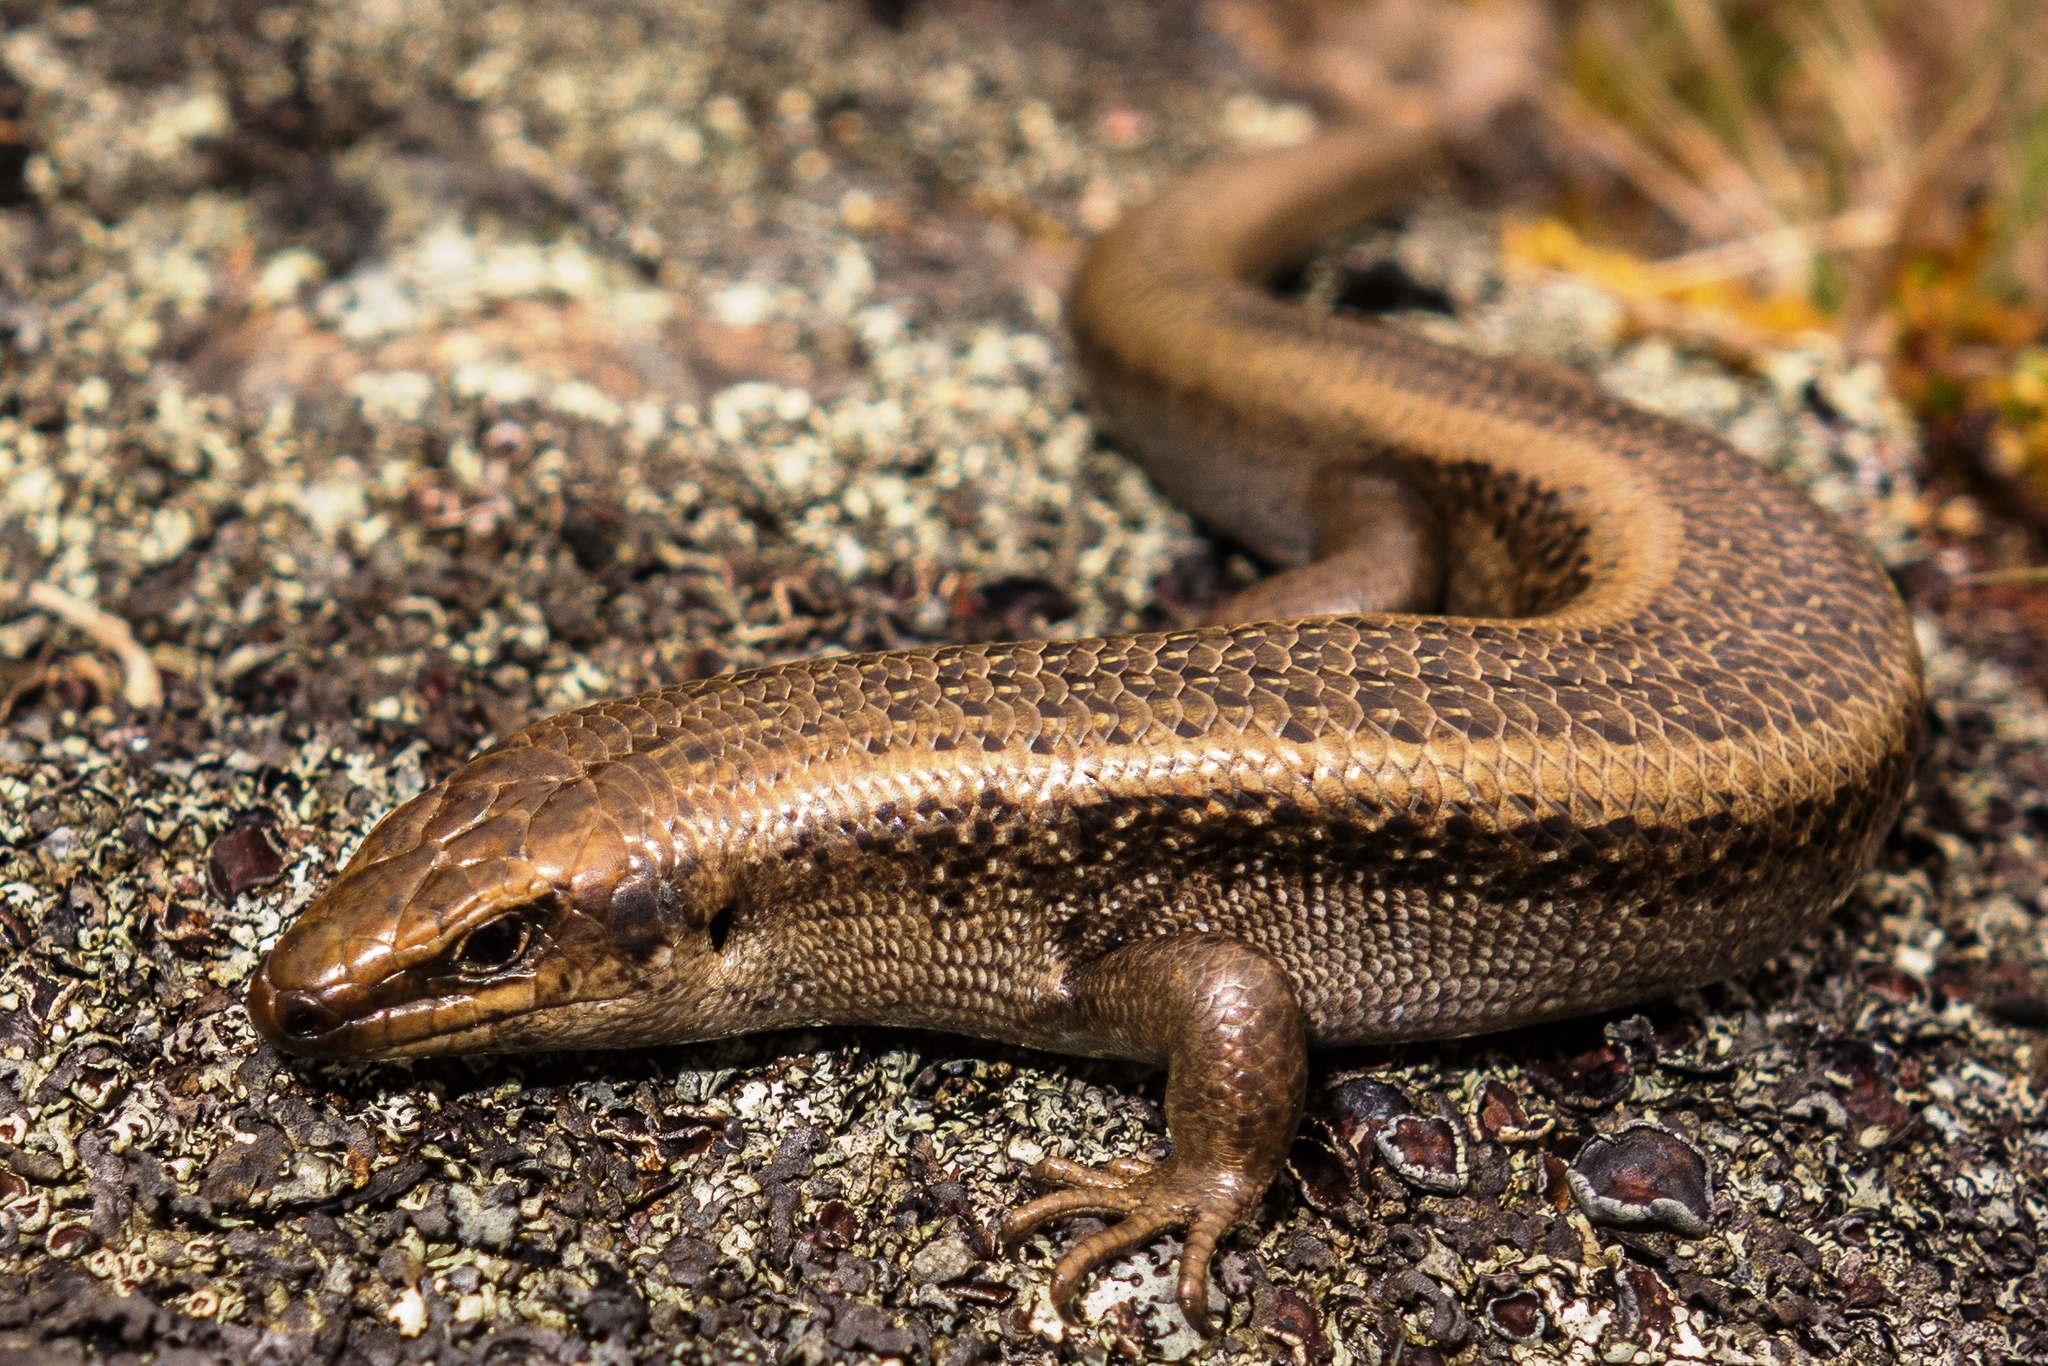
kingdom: Animalia
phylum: Chordata
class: Squamata
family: Scincidae
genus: Oligosoma
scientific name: Oligosoma prasinum
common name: Mackenzie skink
